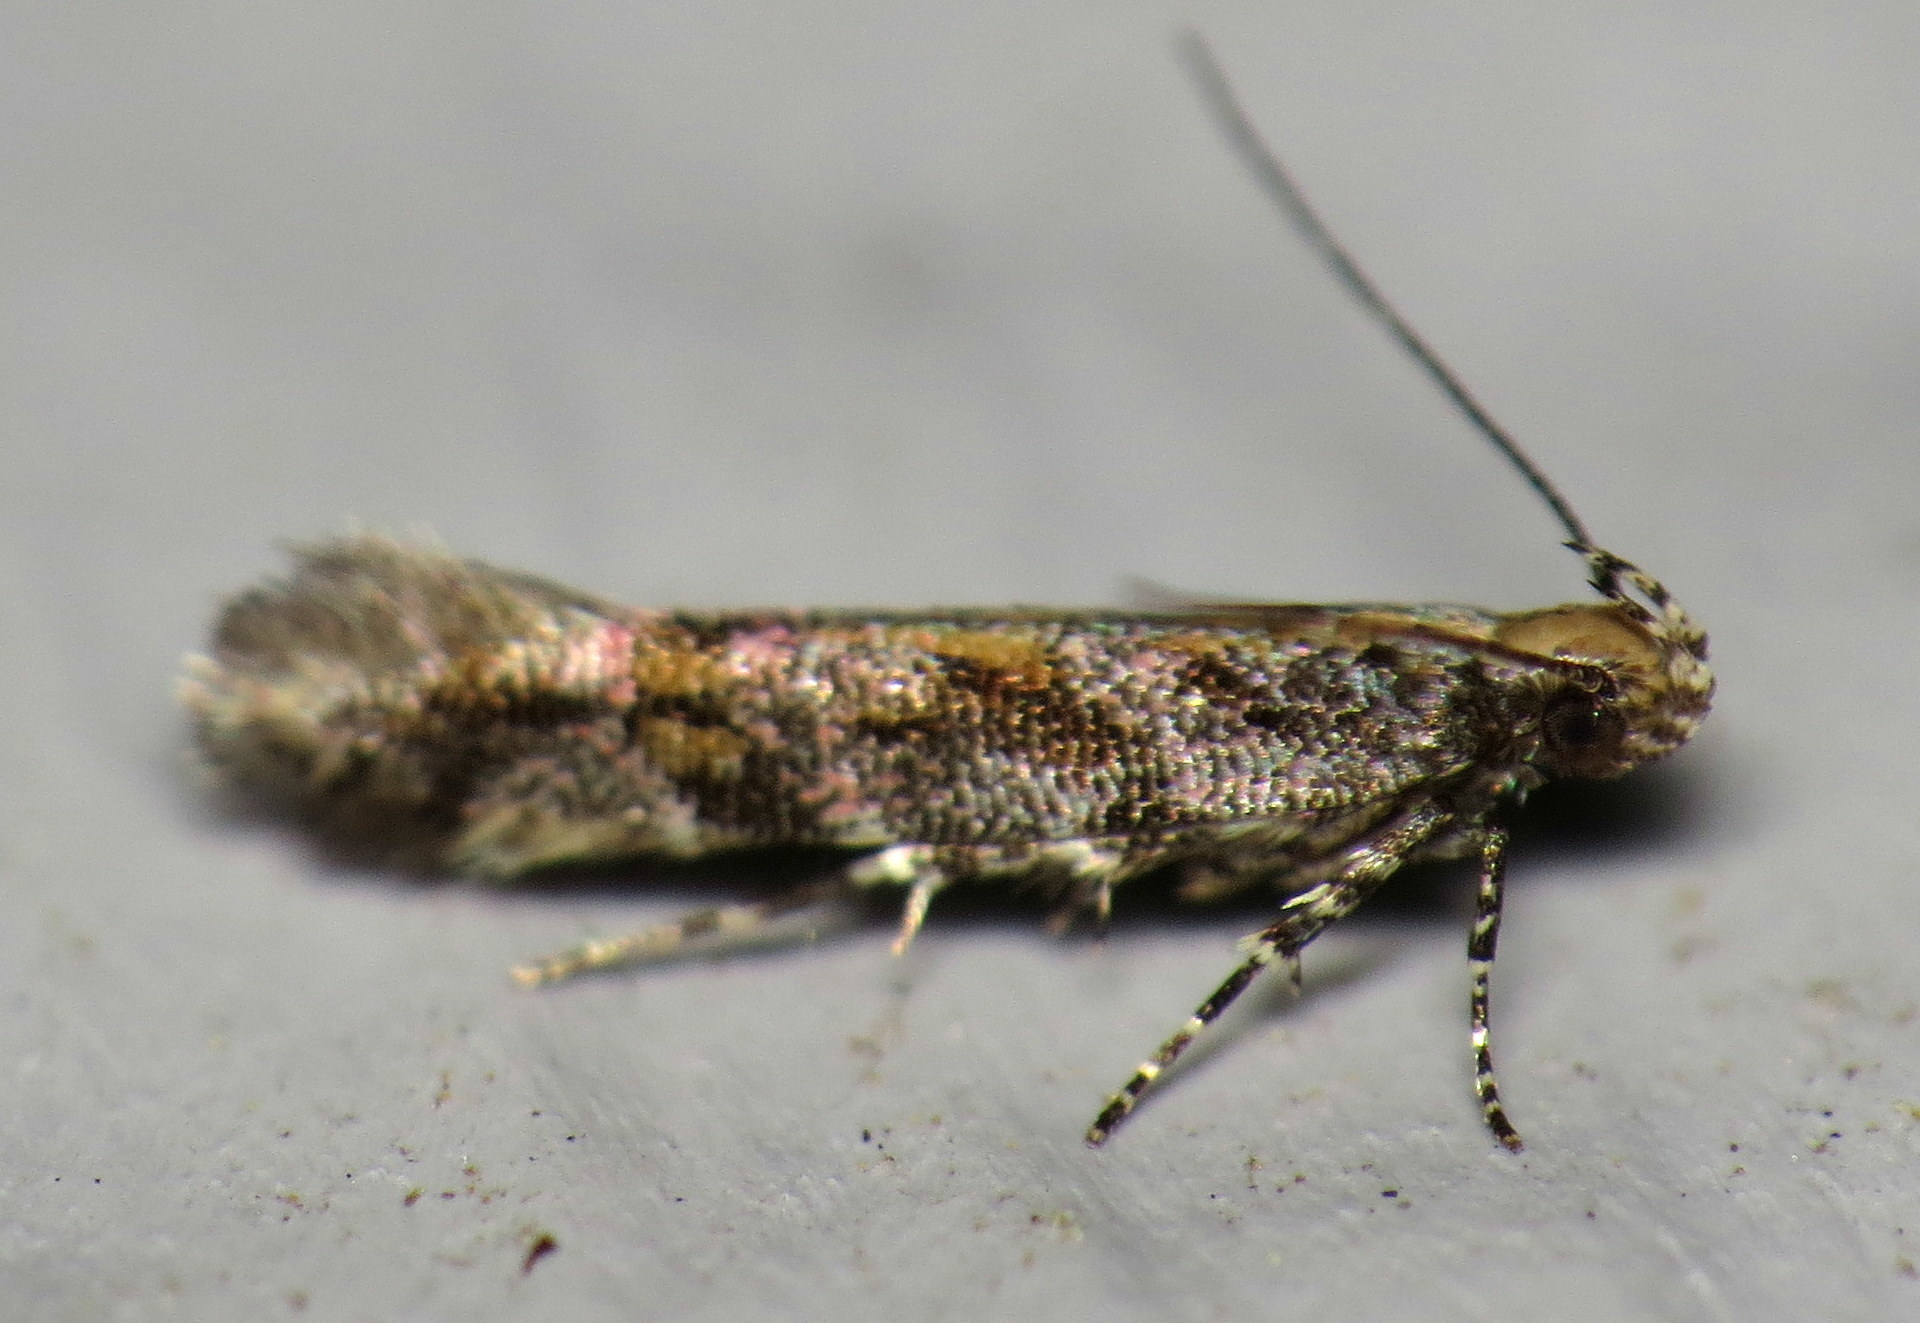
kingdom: Animalia
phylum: Arthropoda
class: Insecta
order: Lepidoptera
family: Gelechiidae
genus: Aristotelia
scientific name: Aristotelia rubidella
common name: Ruby aristotelia moth
